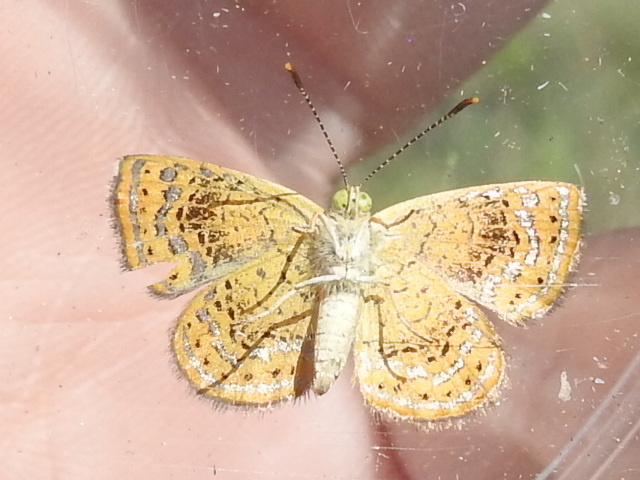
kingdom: Animalia
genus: Calephelis
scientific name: Calephelis perditalis
